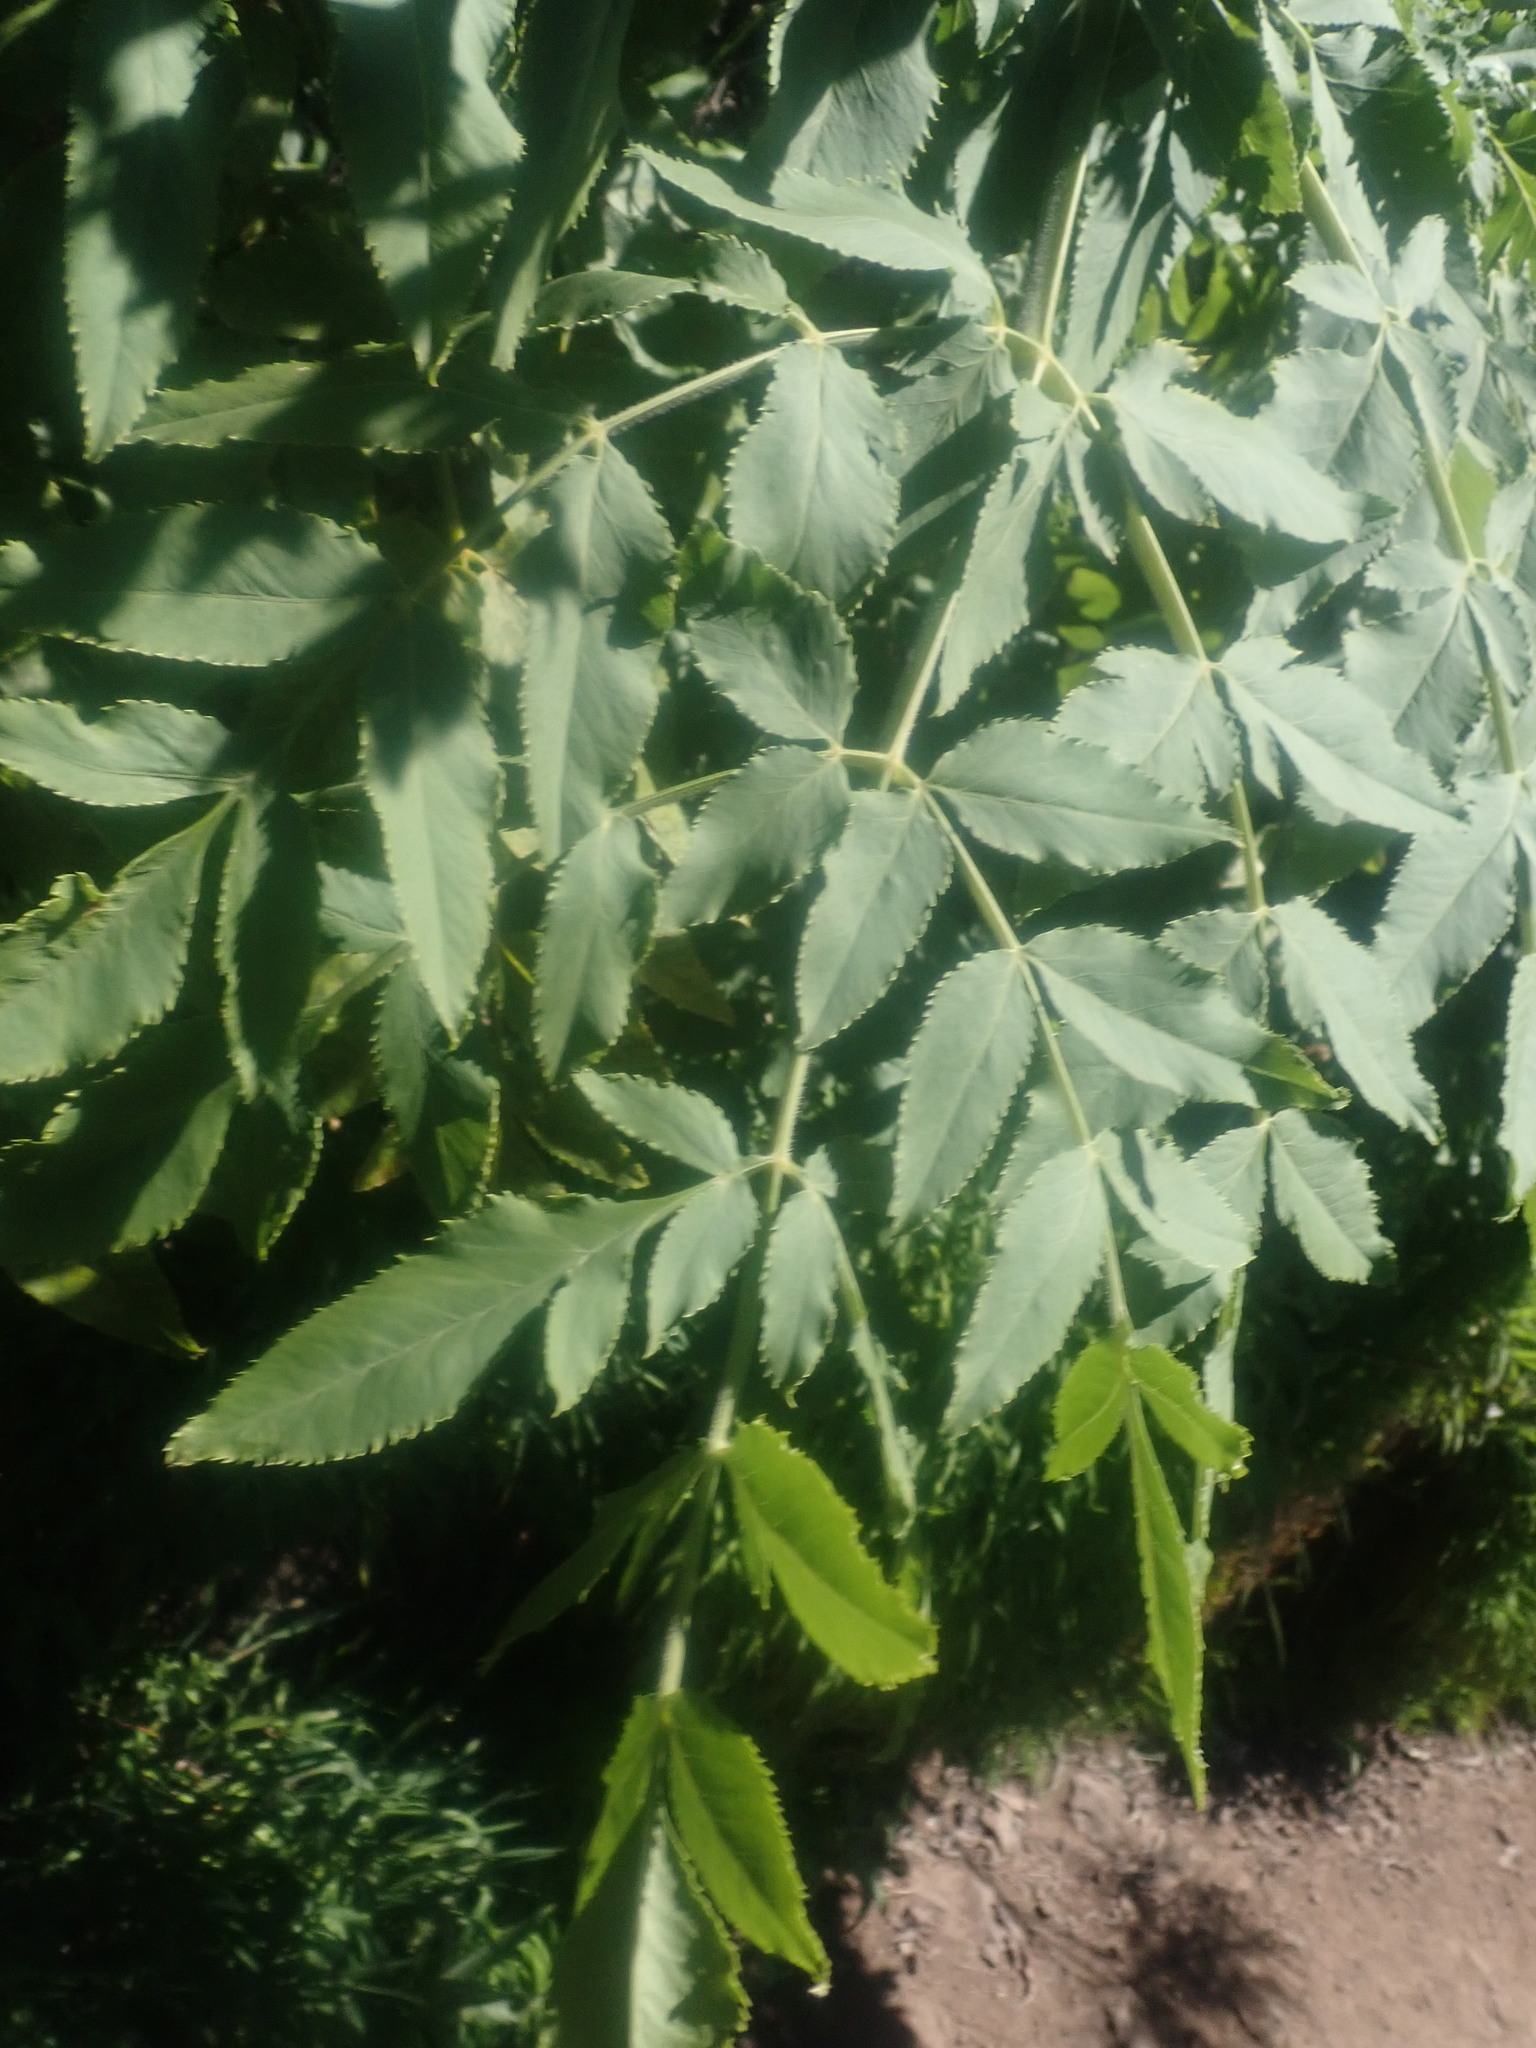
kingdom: Plantae
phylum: Tracheophyta
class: Magnoliopsida
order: Apiales
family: Apiaceae
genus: Daucus
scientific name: Daucus decipiens
